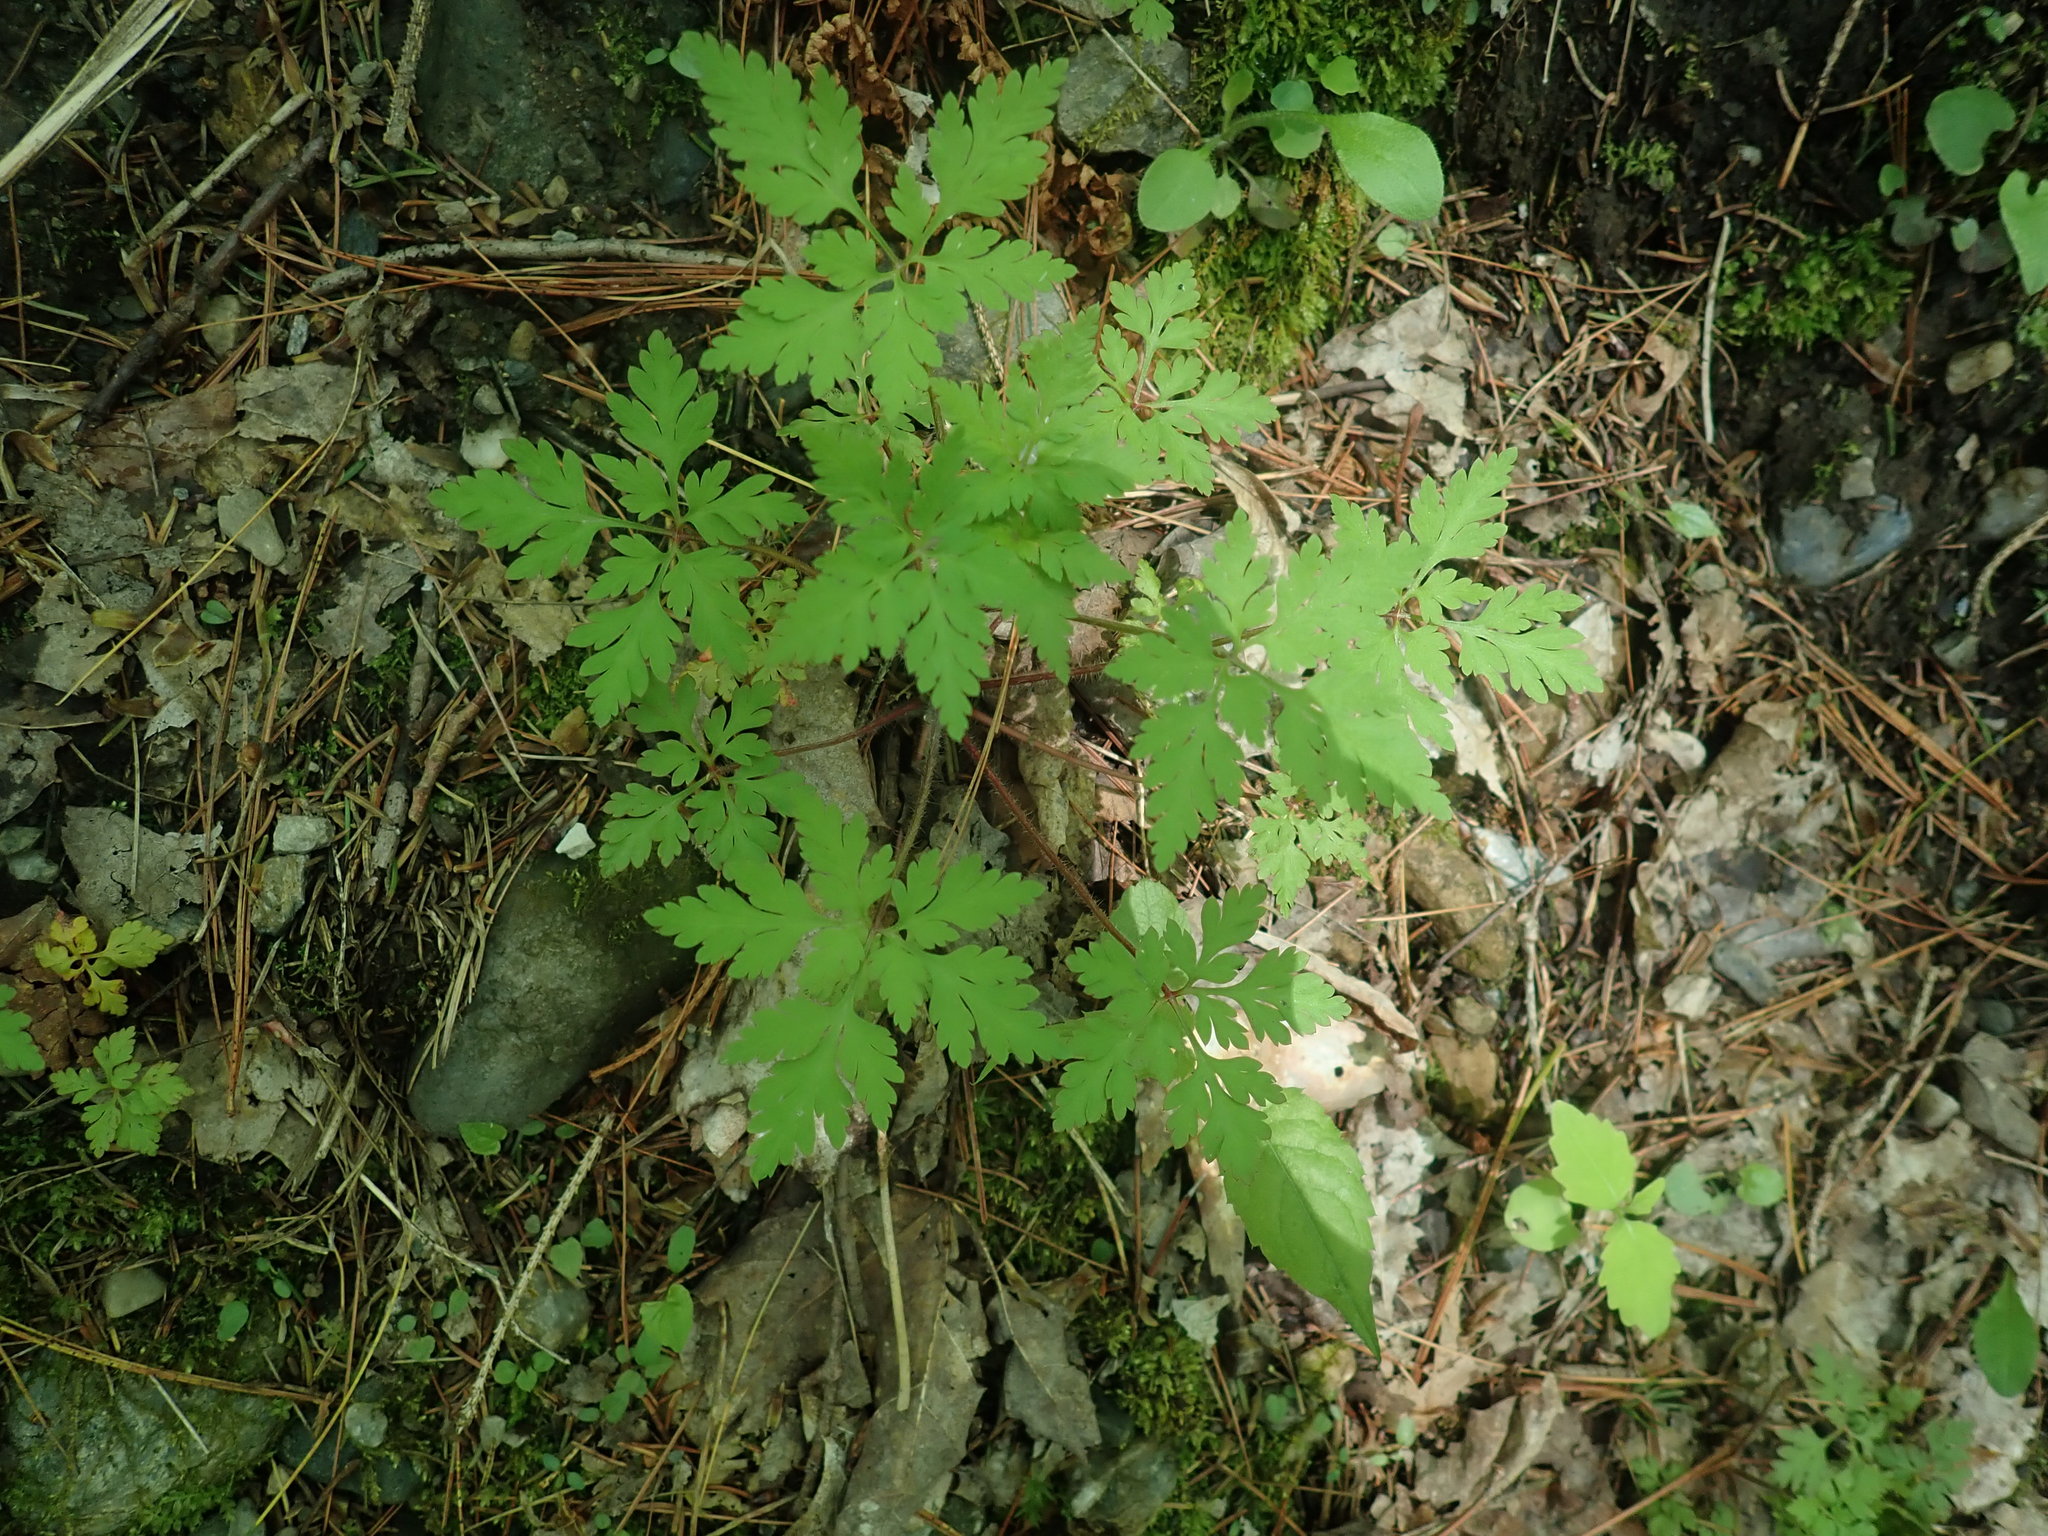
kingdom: Plantae
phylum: Tracheophyta
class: Magnoliopsida
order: Geraniales
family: Geraniaceae
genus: Geranium
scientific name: Geranium robertianum
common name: Herb-robert
